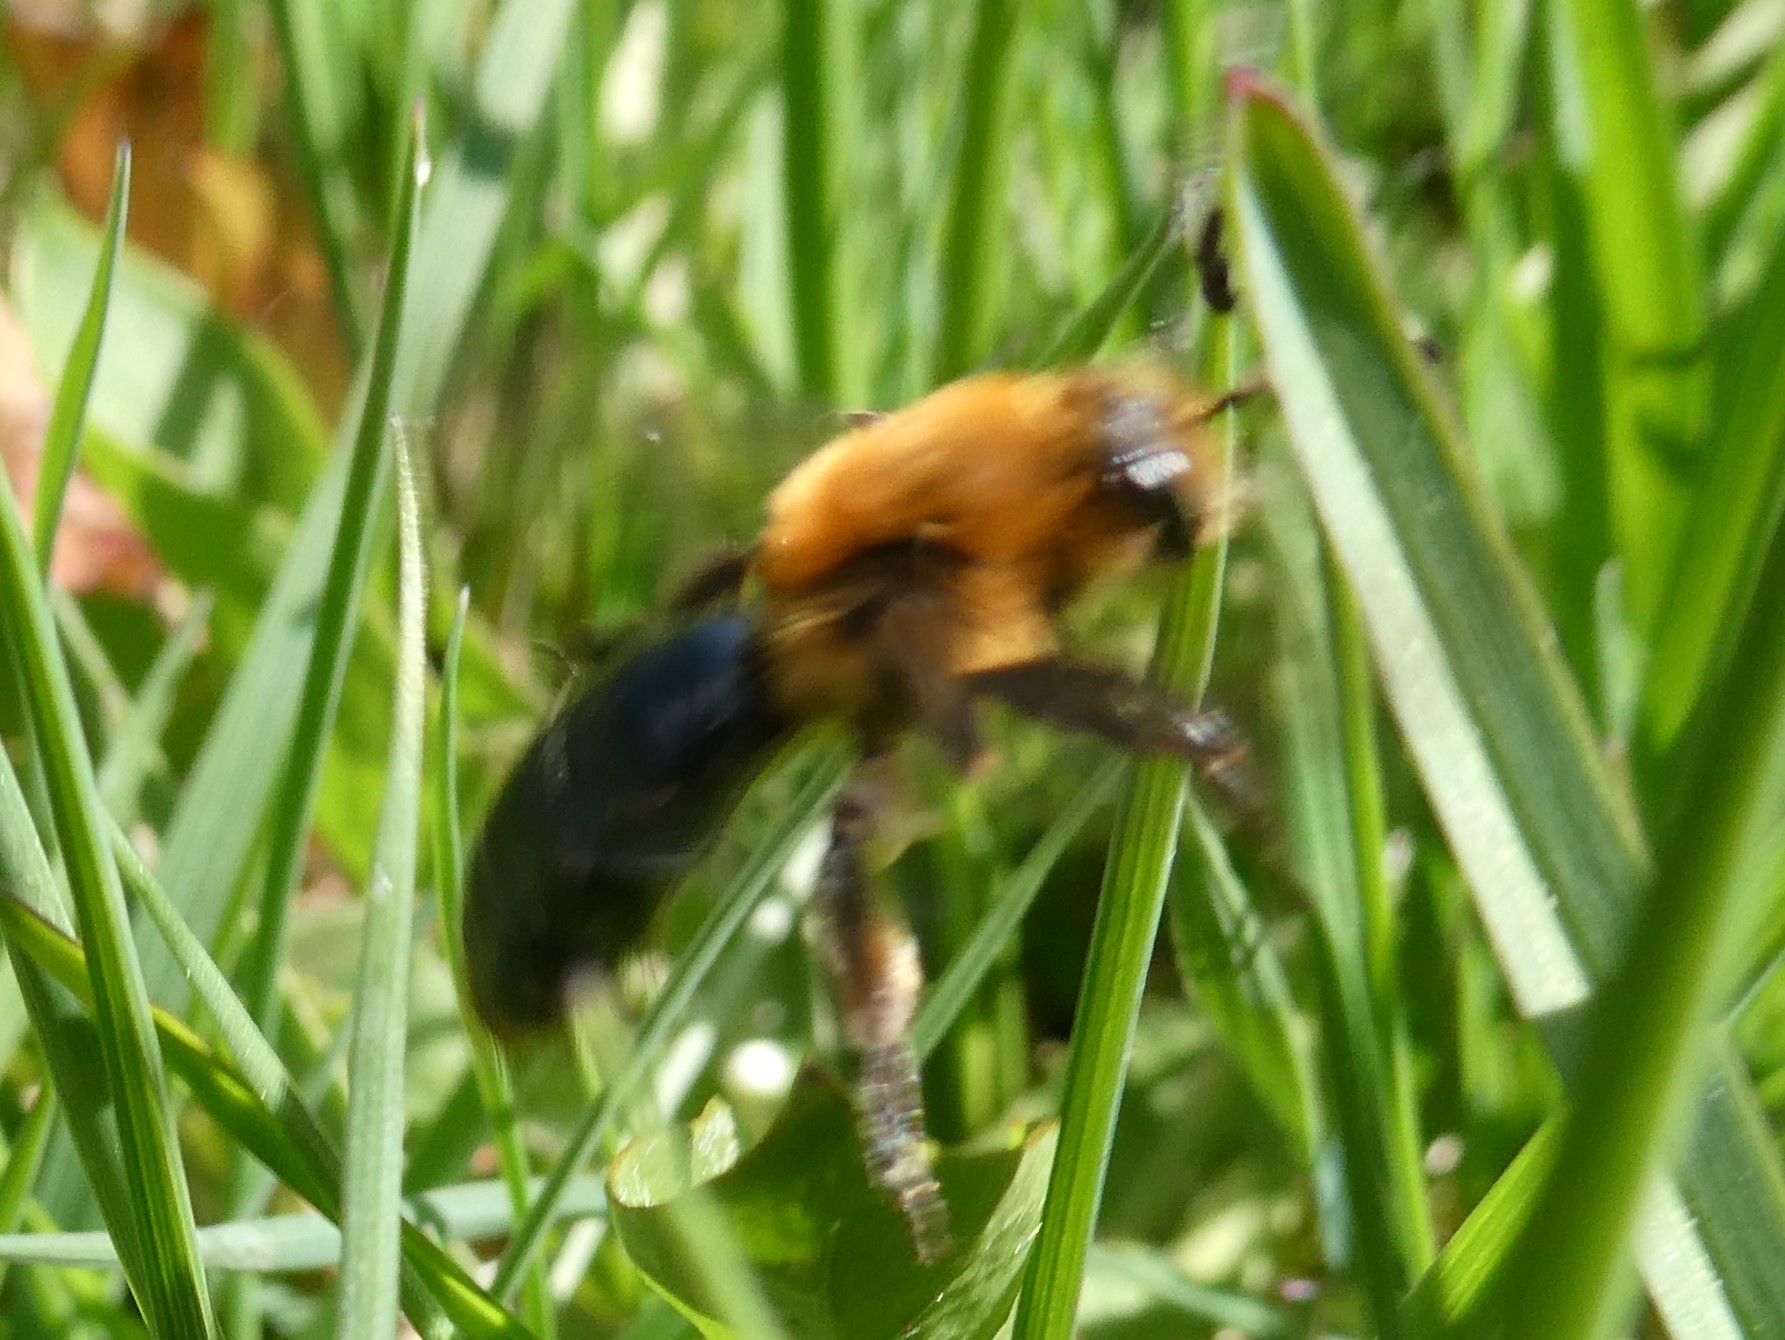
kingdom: Animalia
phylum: Arthropoda
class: Insecta
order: Hymenoptera
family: Andrenidae
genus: Andrena
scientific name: Andrena dunningi
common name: Dunning's miner
